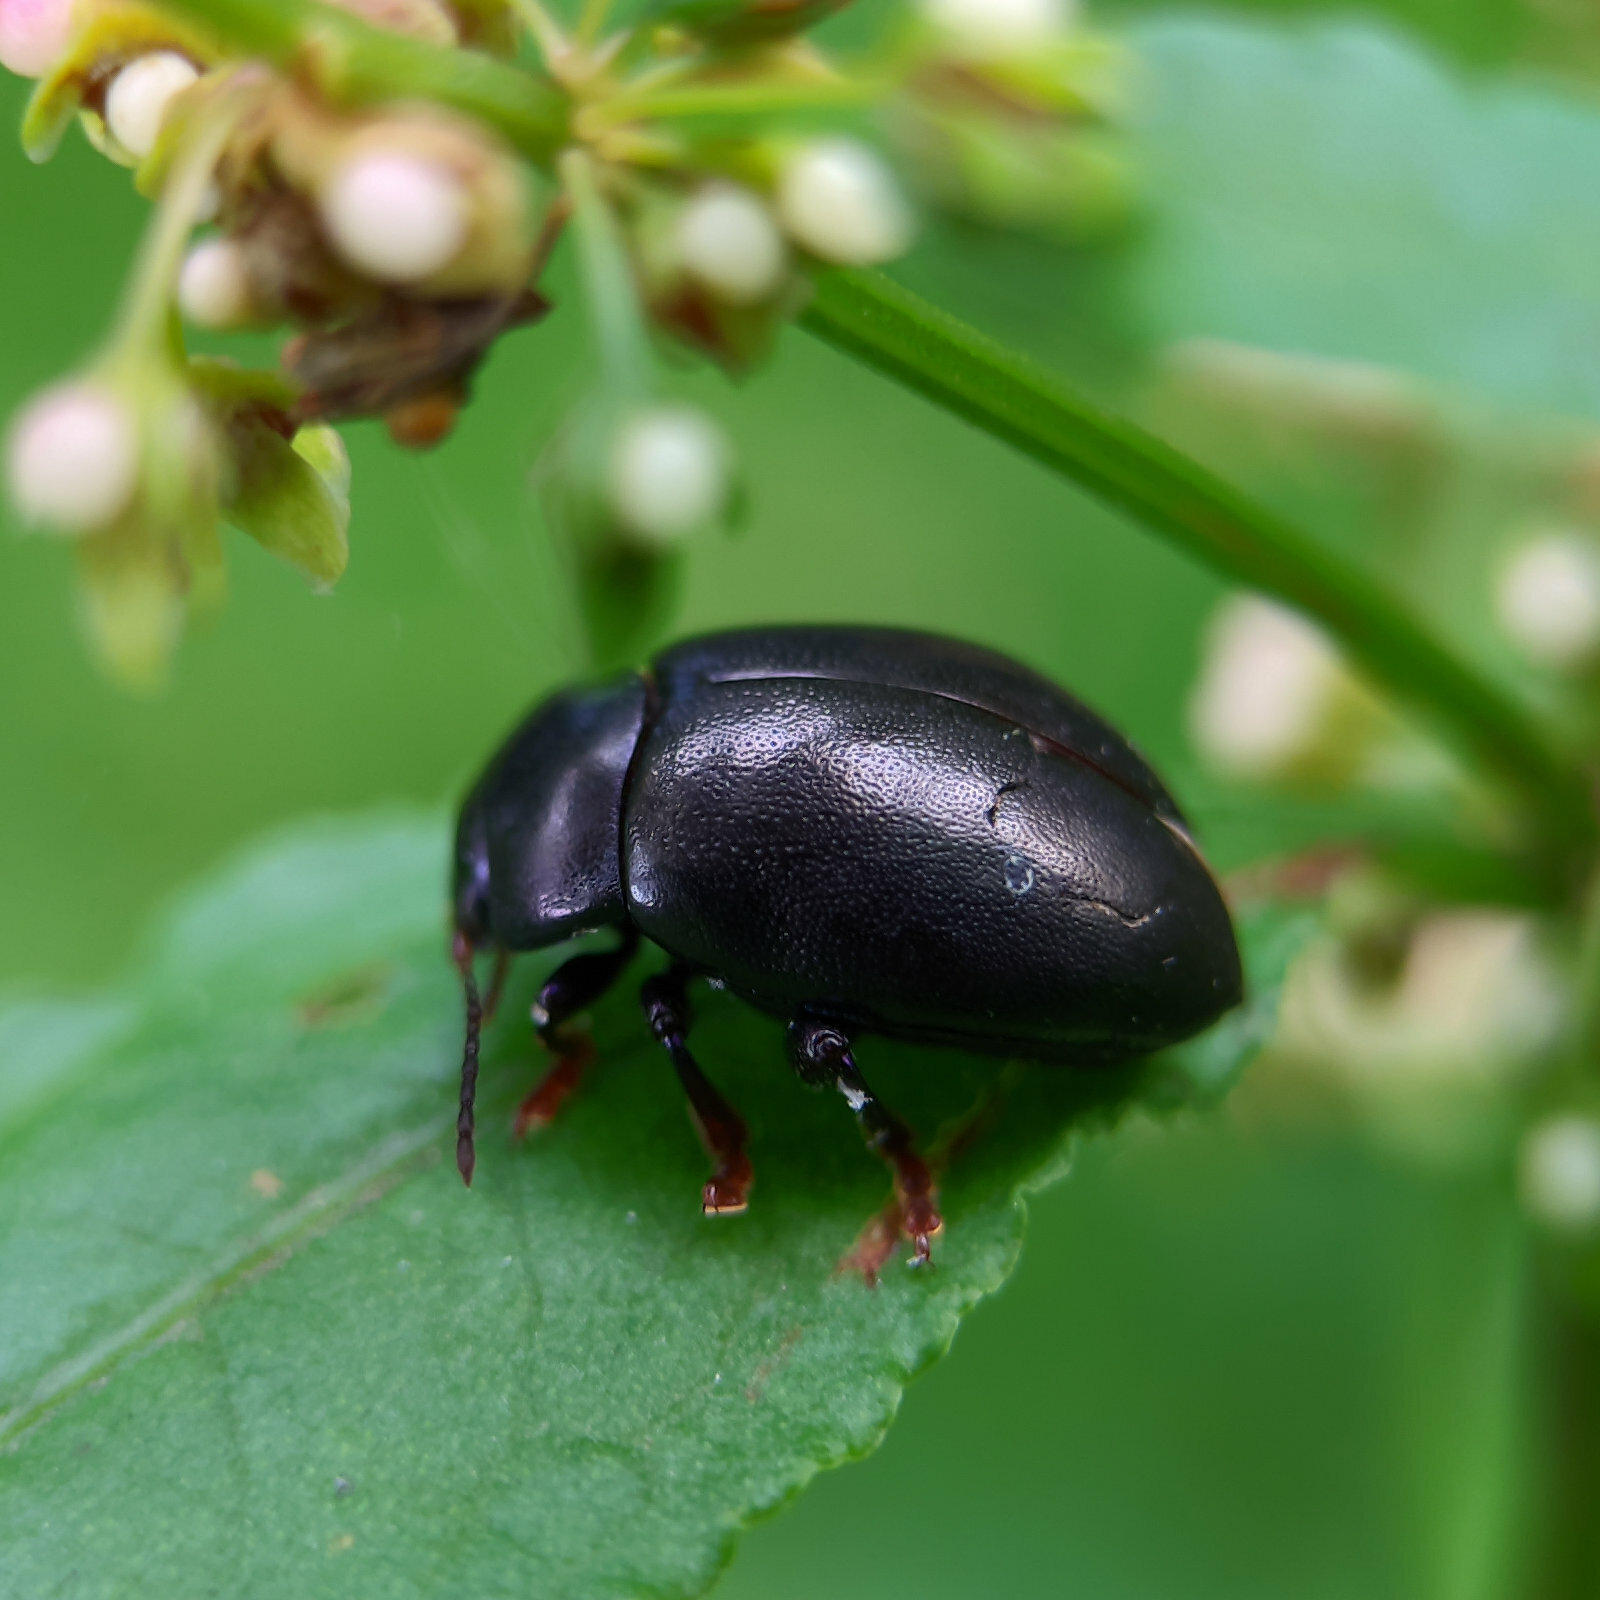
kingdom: Animalia
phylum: Arthropoda
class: Insecta
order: Coleoptera
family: Chrysomelidae
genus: Chrysolina
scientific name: Chrysolina sturmi
